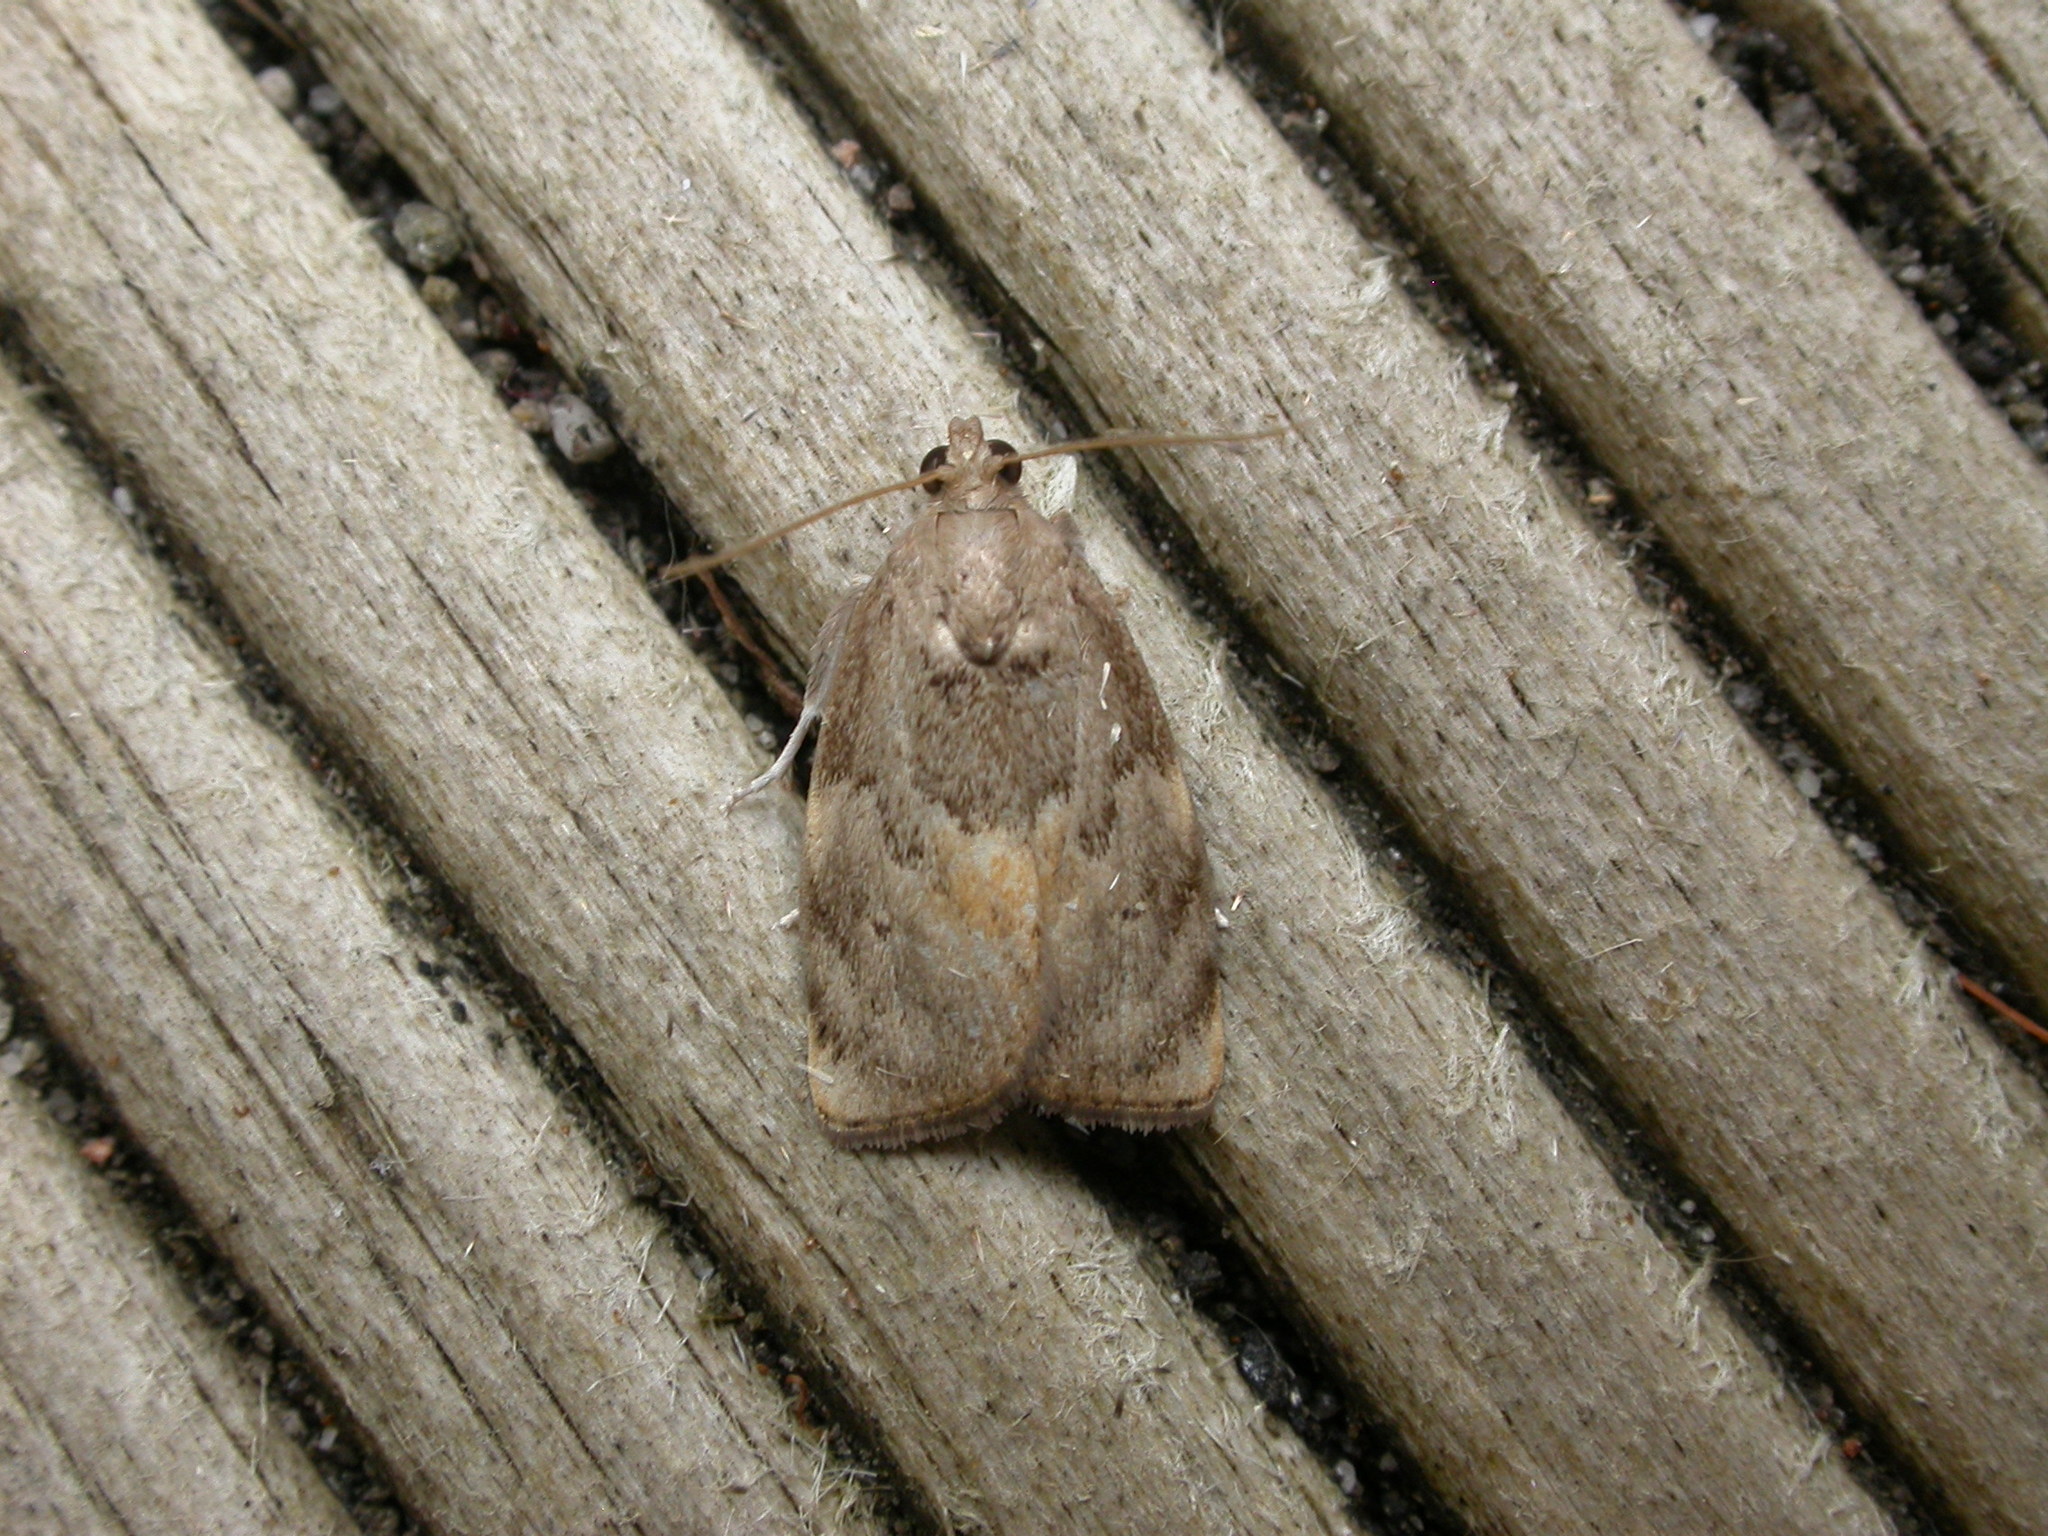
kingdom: Animalia
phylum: Arthropoda
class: Insecta
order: Lepidoptera
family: Immidae
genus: Imma
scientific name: Imma acosma
